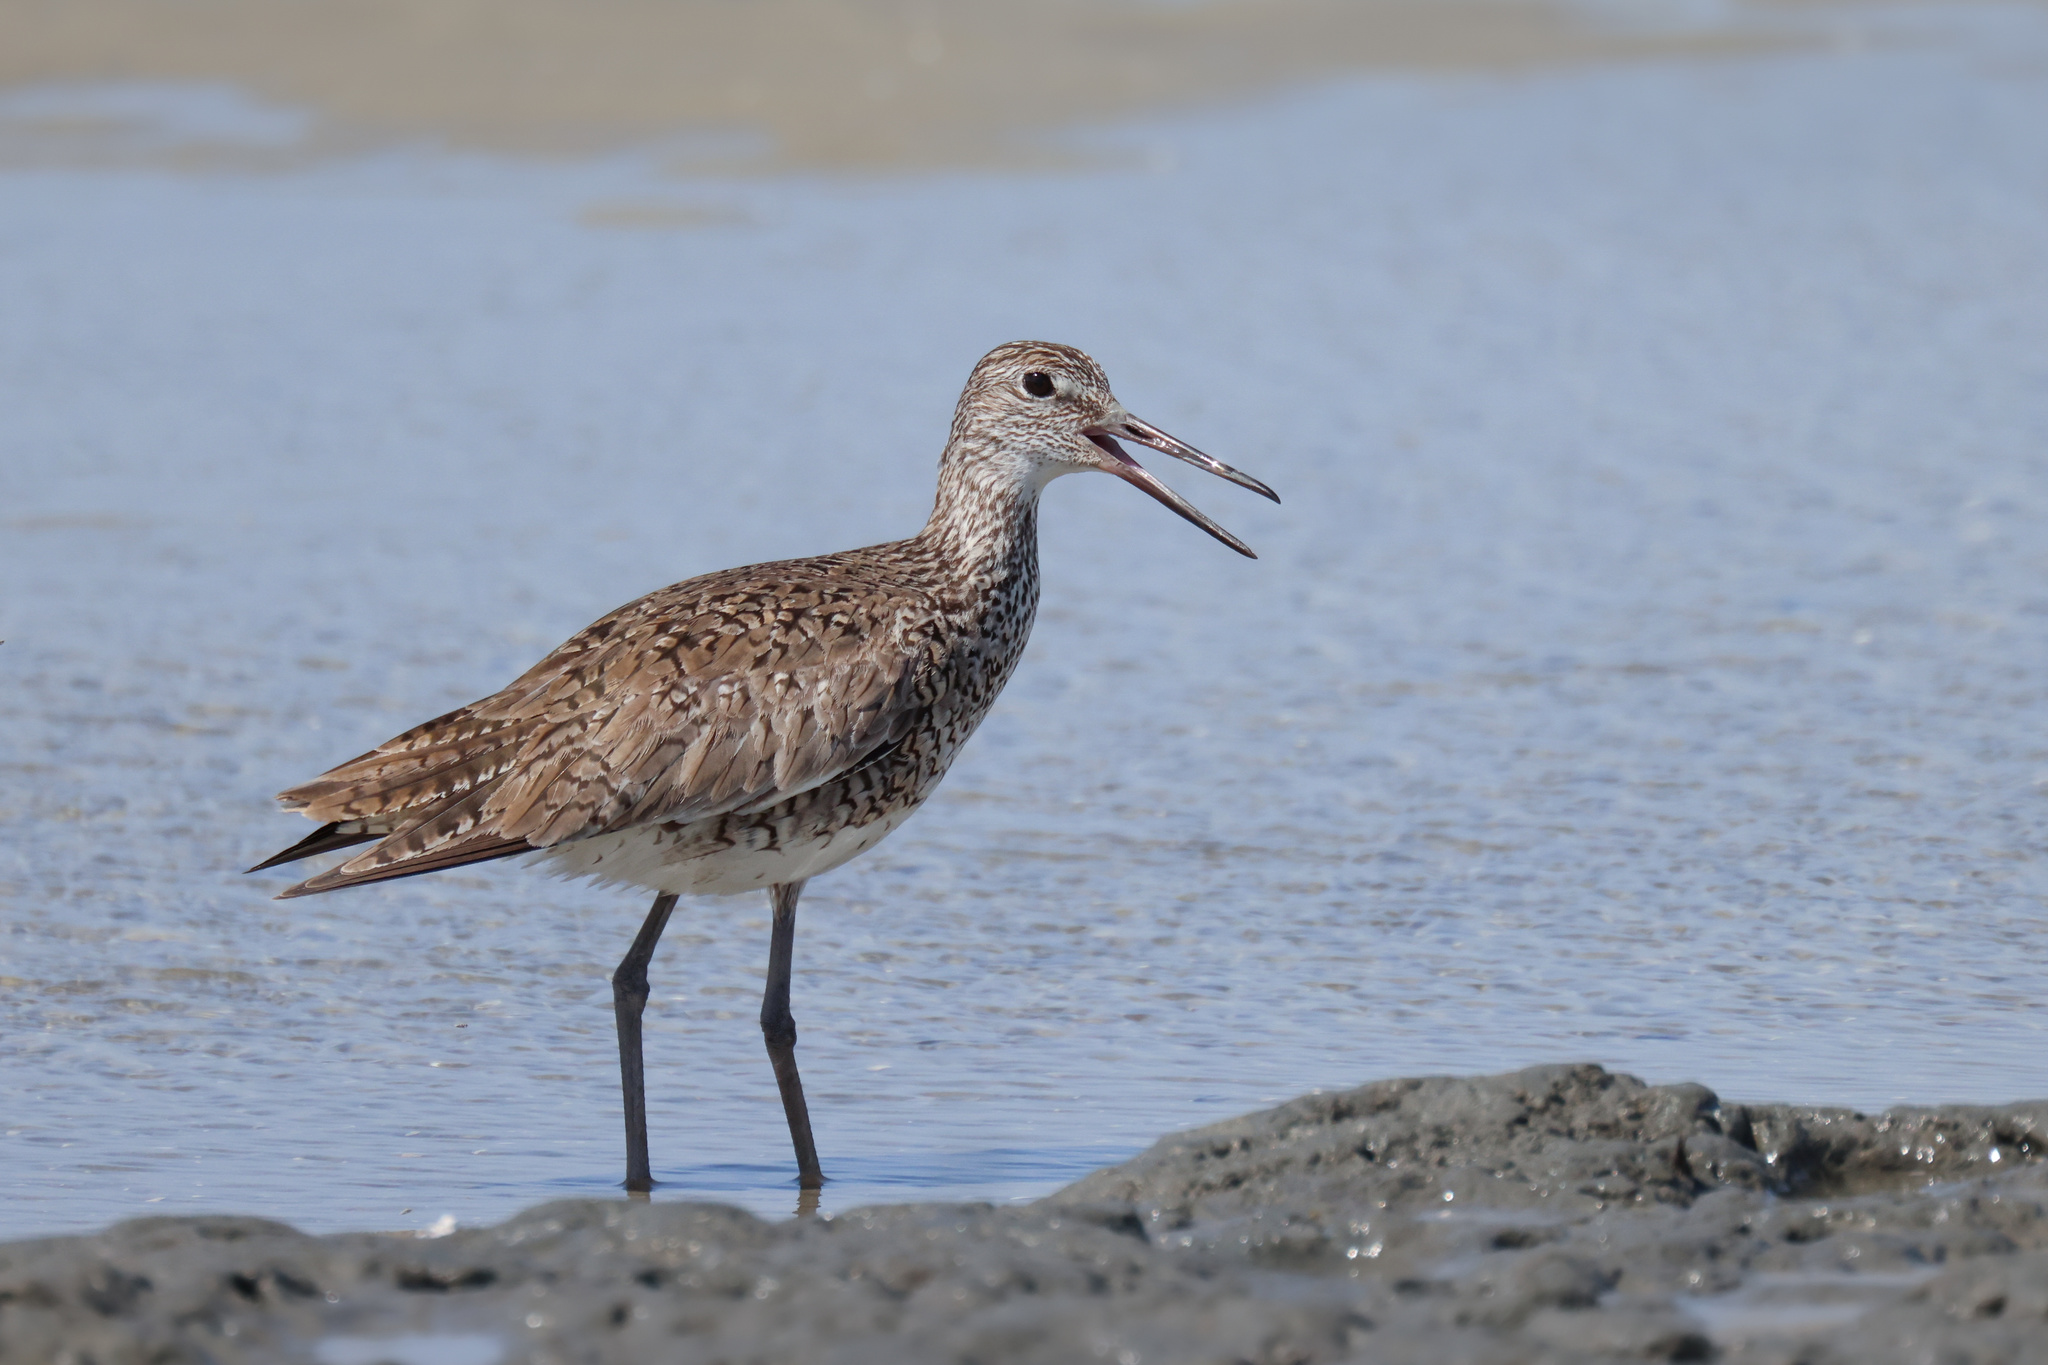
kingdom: Animalia
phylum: Chordata
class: Aves
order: Charadriiformes
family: Scolopacidae
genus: Tringa
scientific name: Tringa semipalmata
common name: Willet
